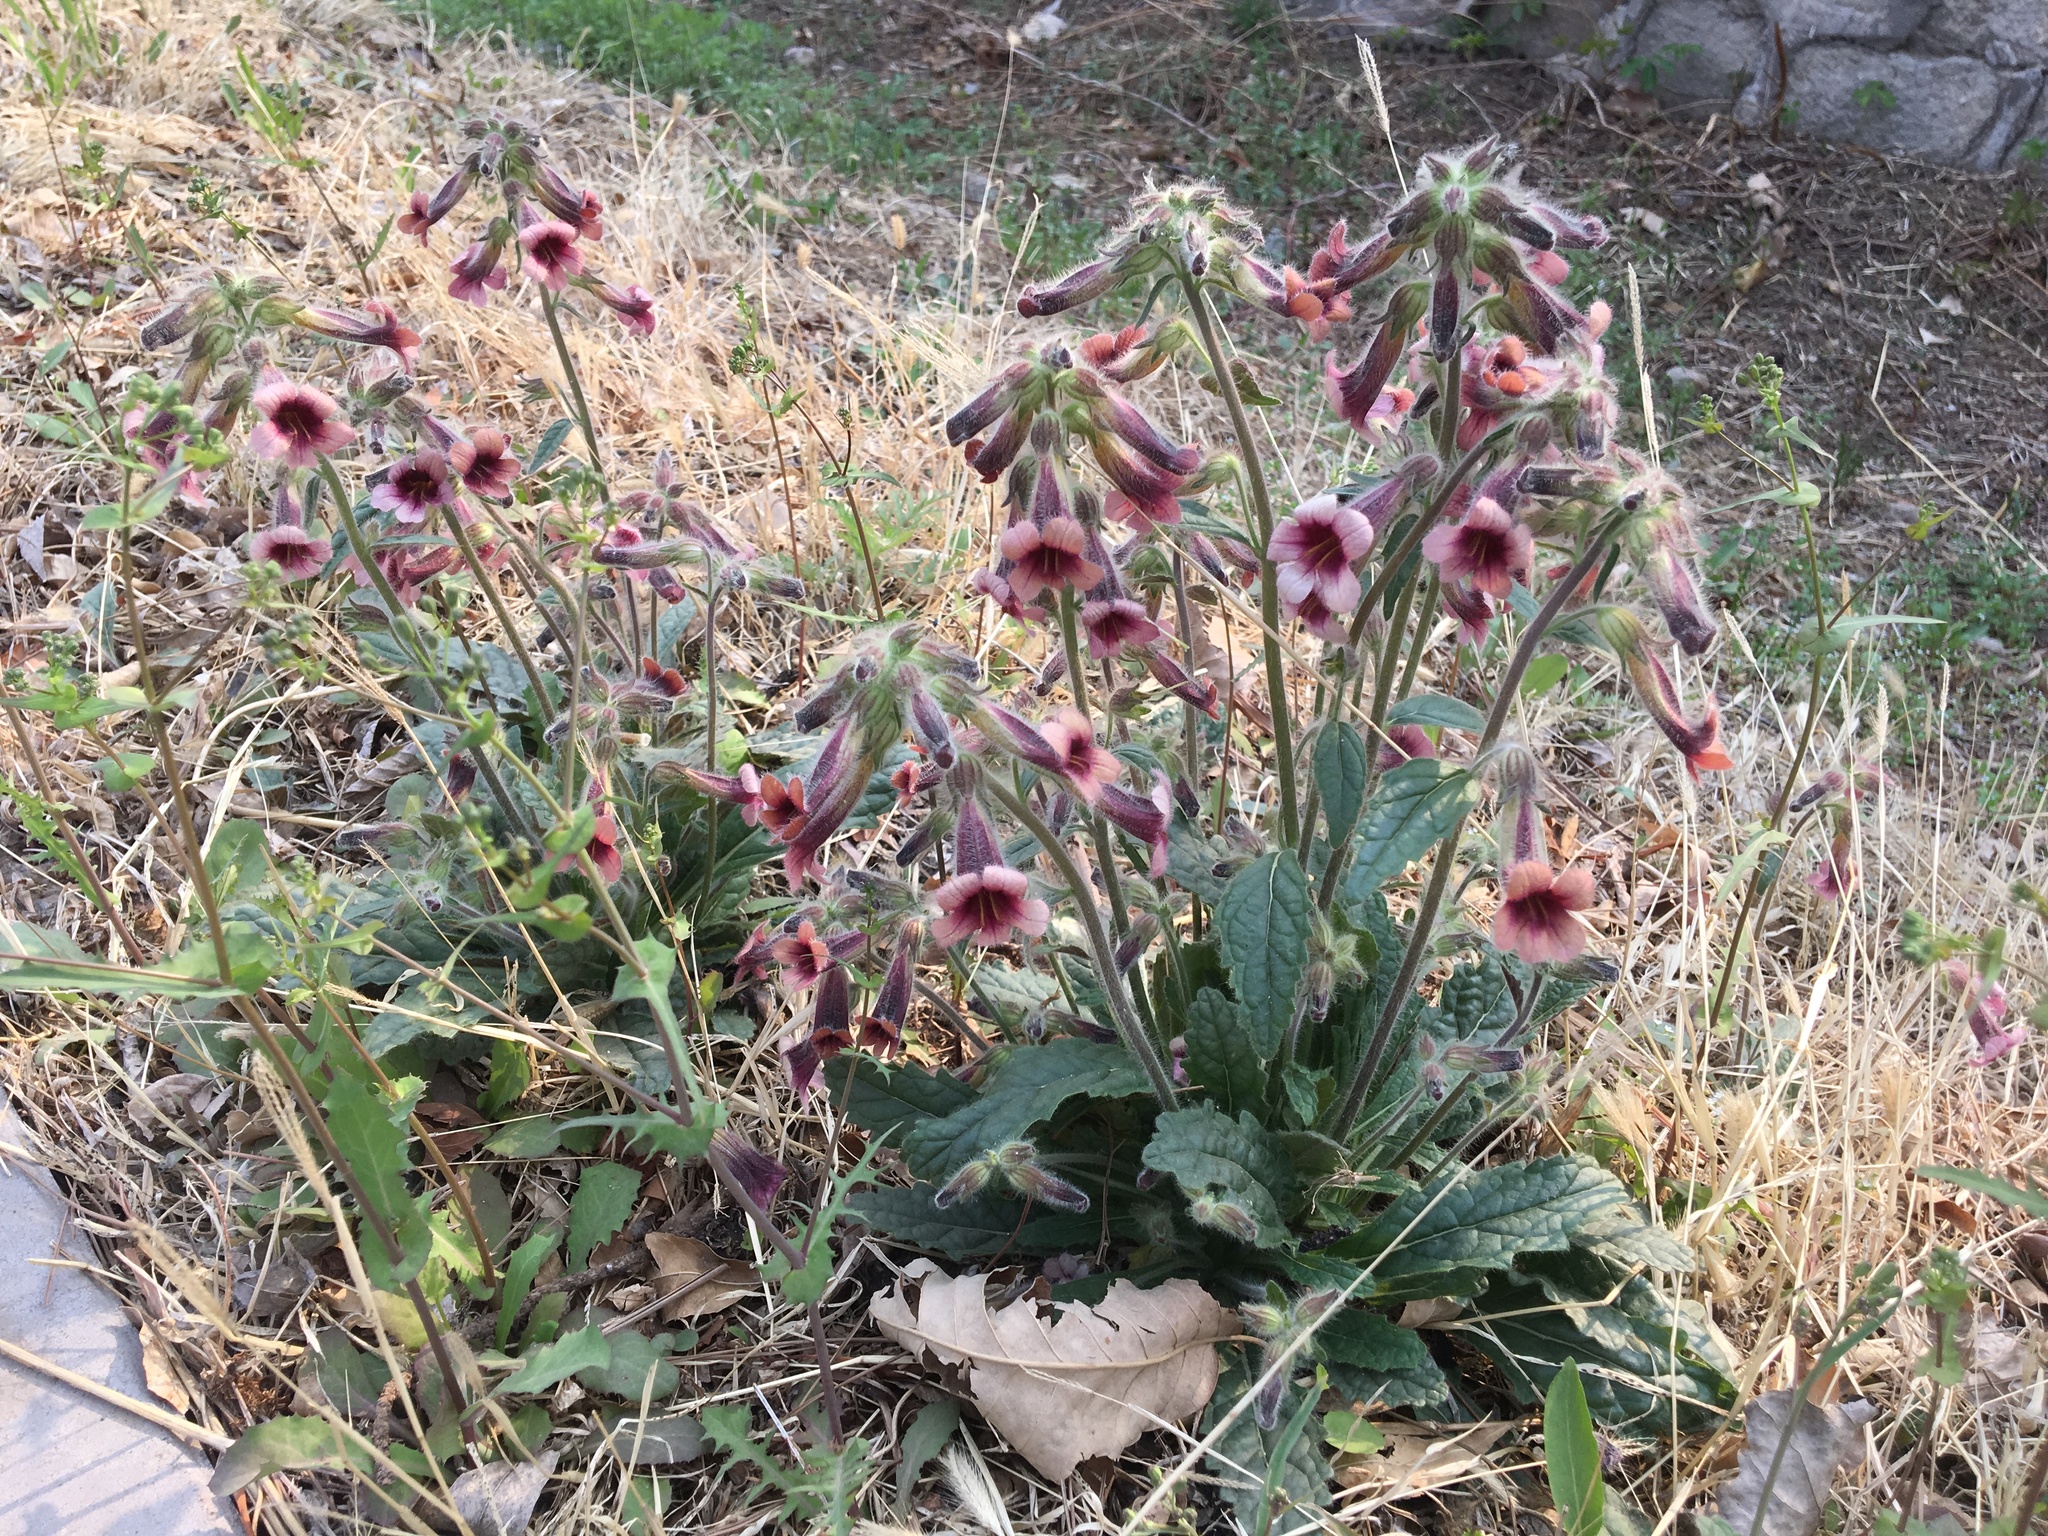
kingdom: Plantae
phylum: Tracheophyta
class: Magnoliopsida
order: Lamiales
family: Rehmanniaceae
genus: Rehmannia
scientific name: Rehmannia glutinosa
